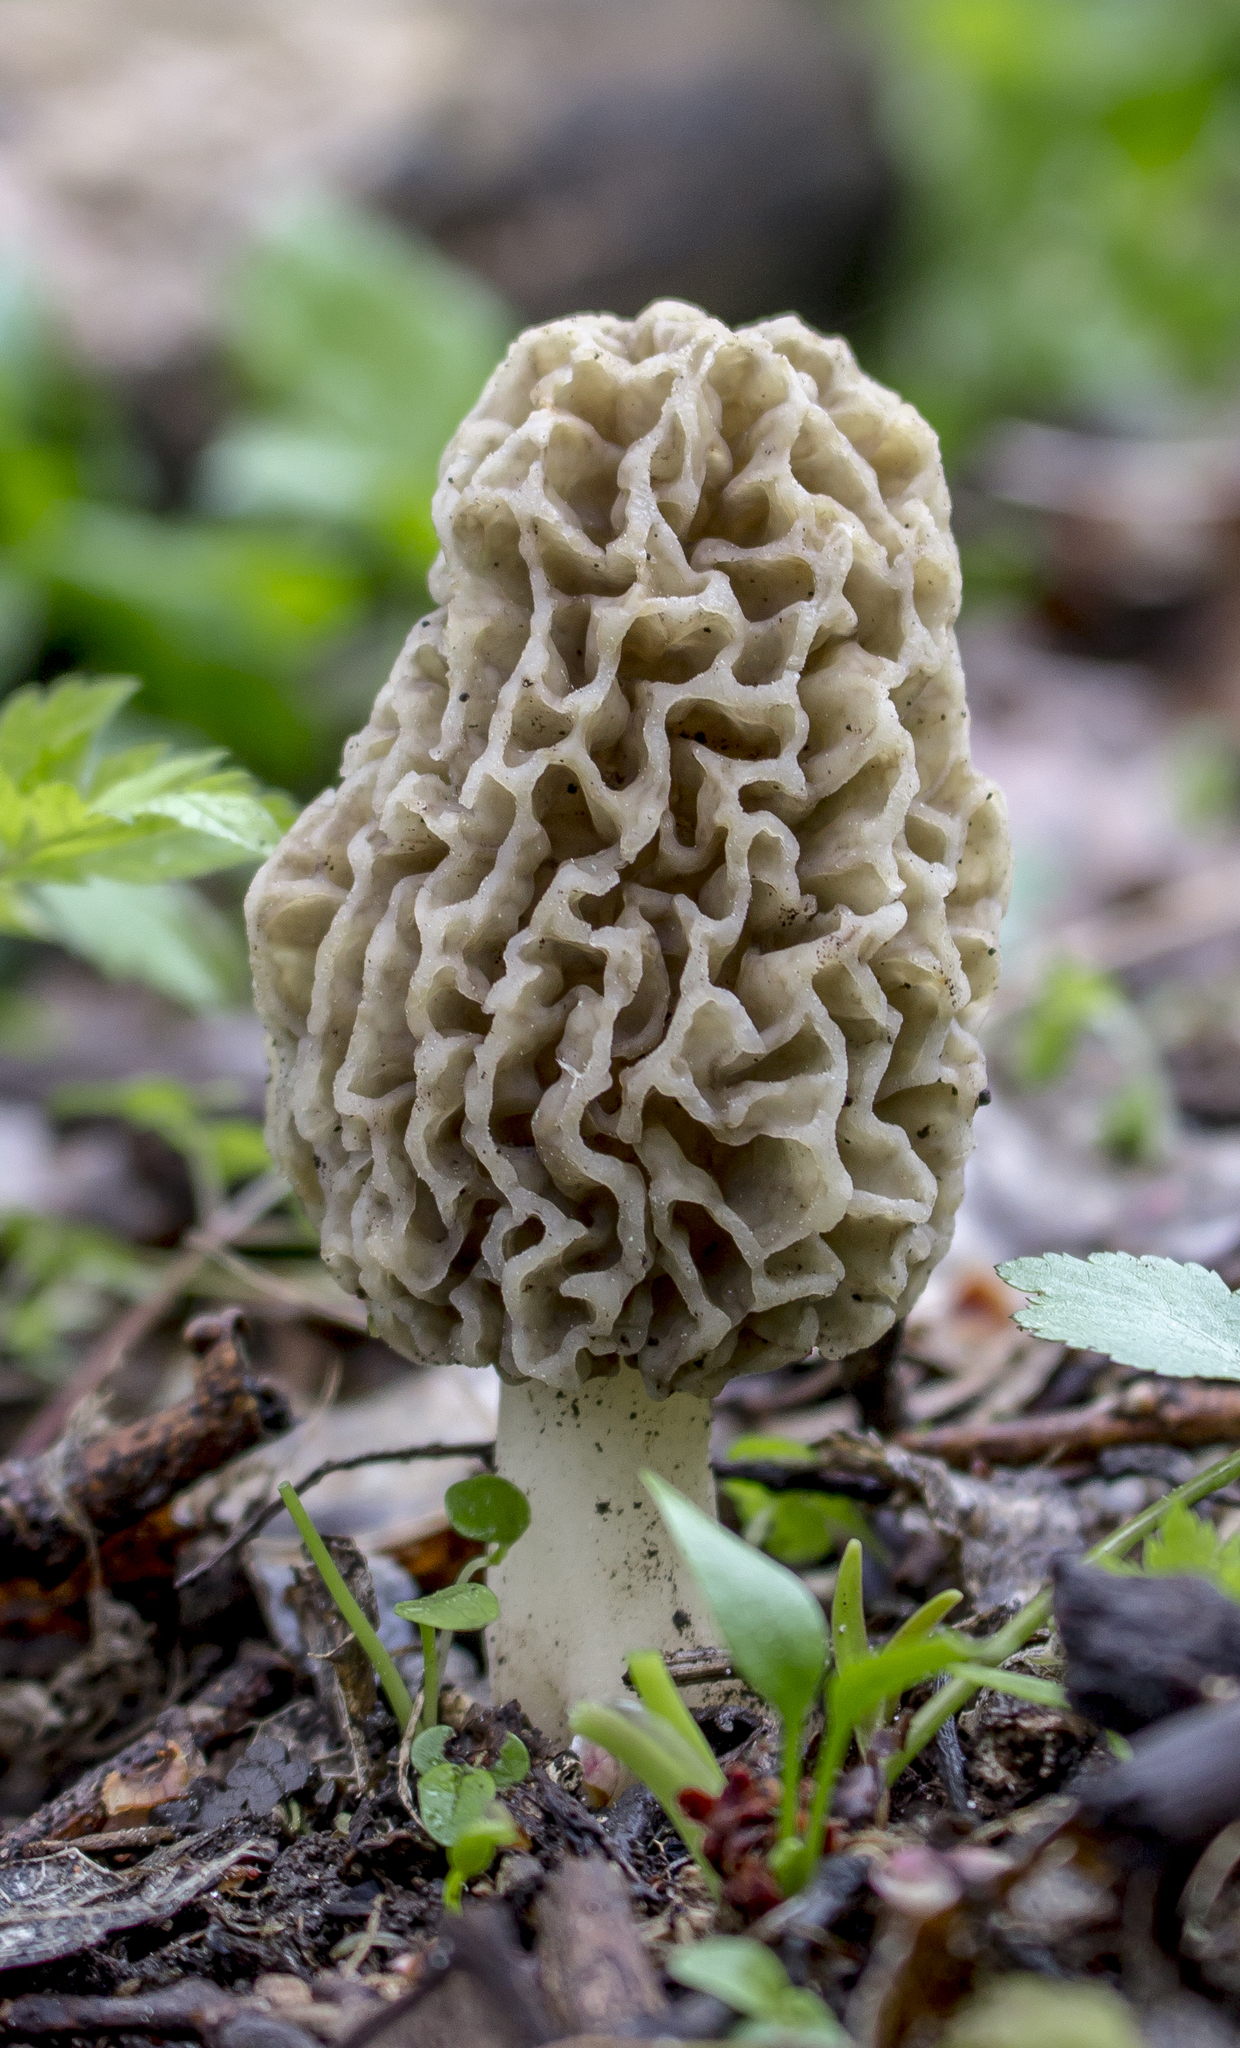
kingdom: Fungi
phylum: Ascomycota
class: Pezizomycetes
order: Pezizales
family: Morchellaceae
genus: Morchella
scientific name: Morchella americana
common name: White morel
